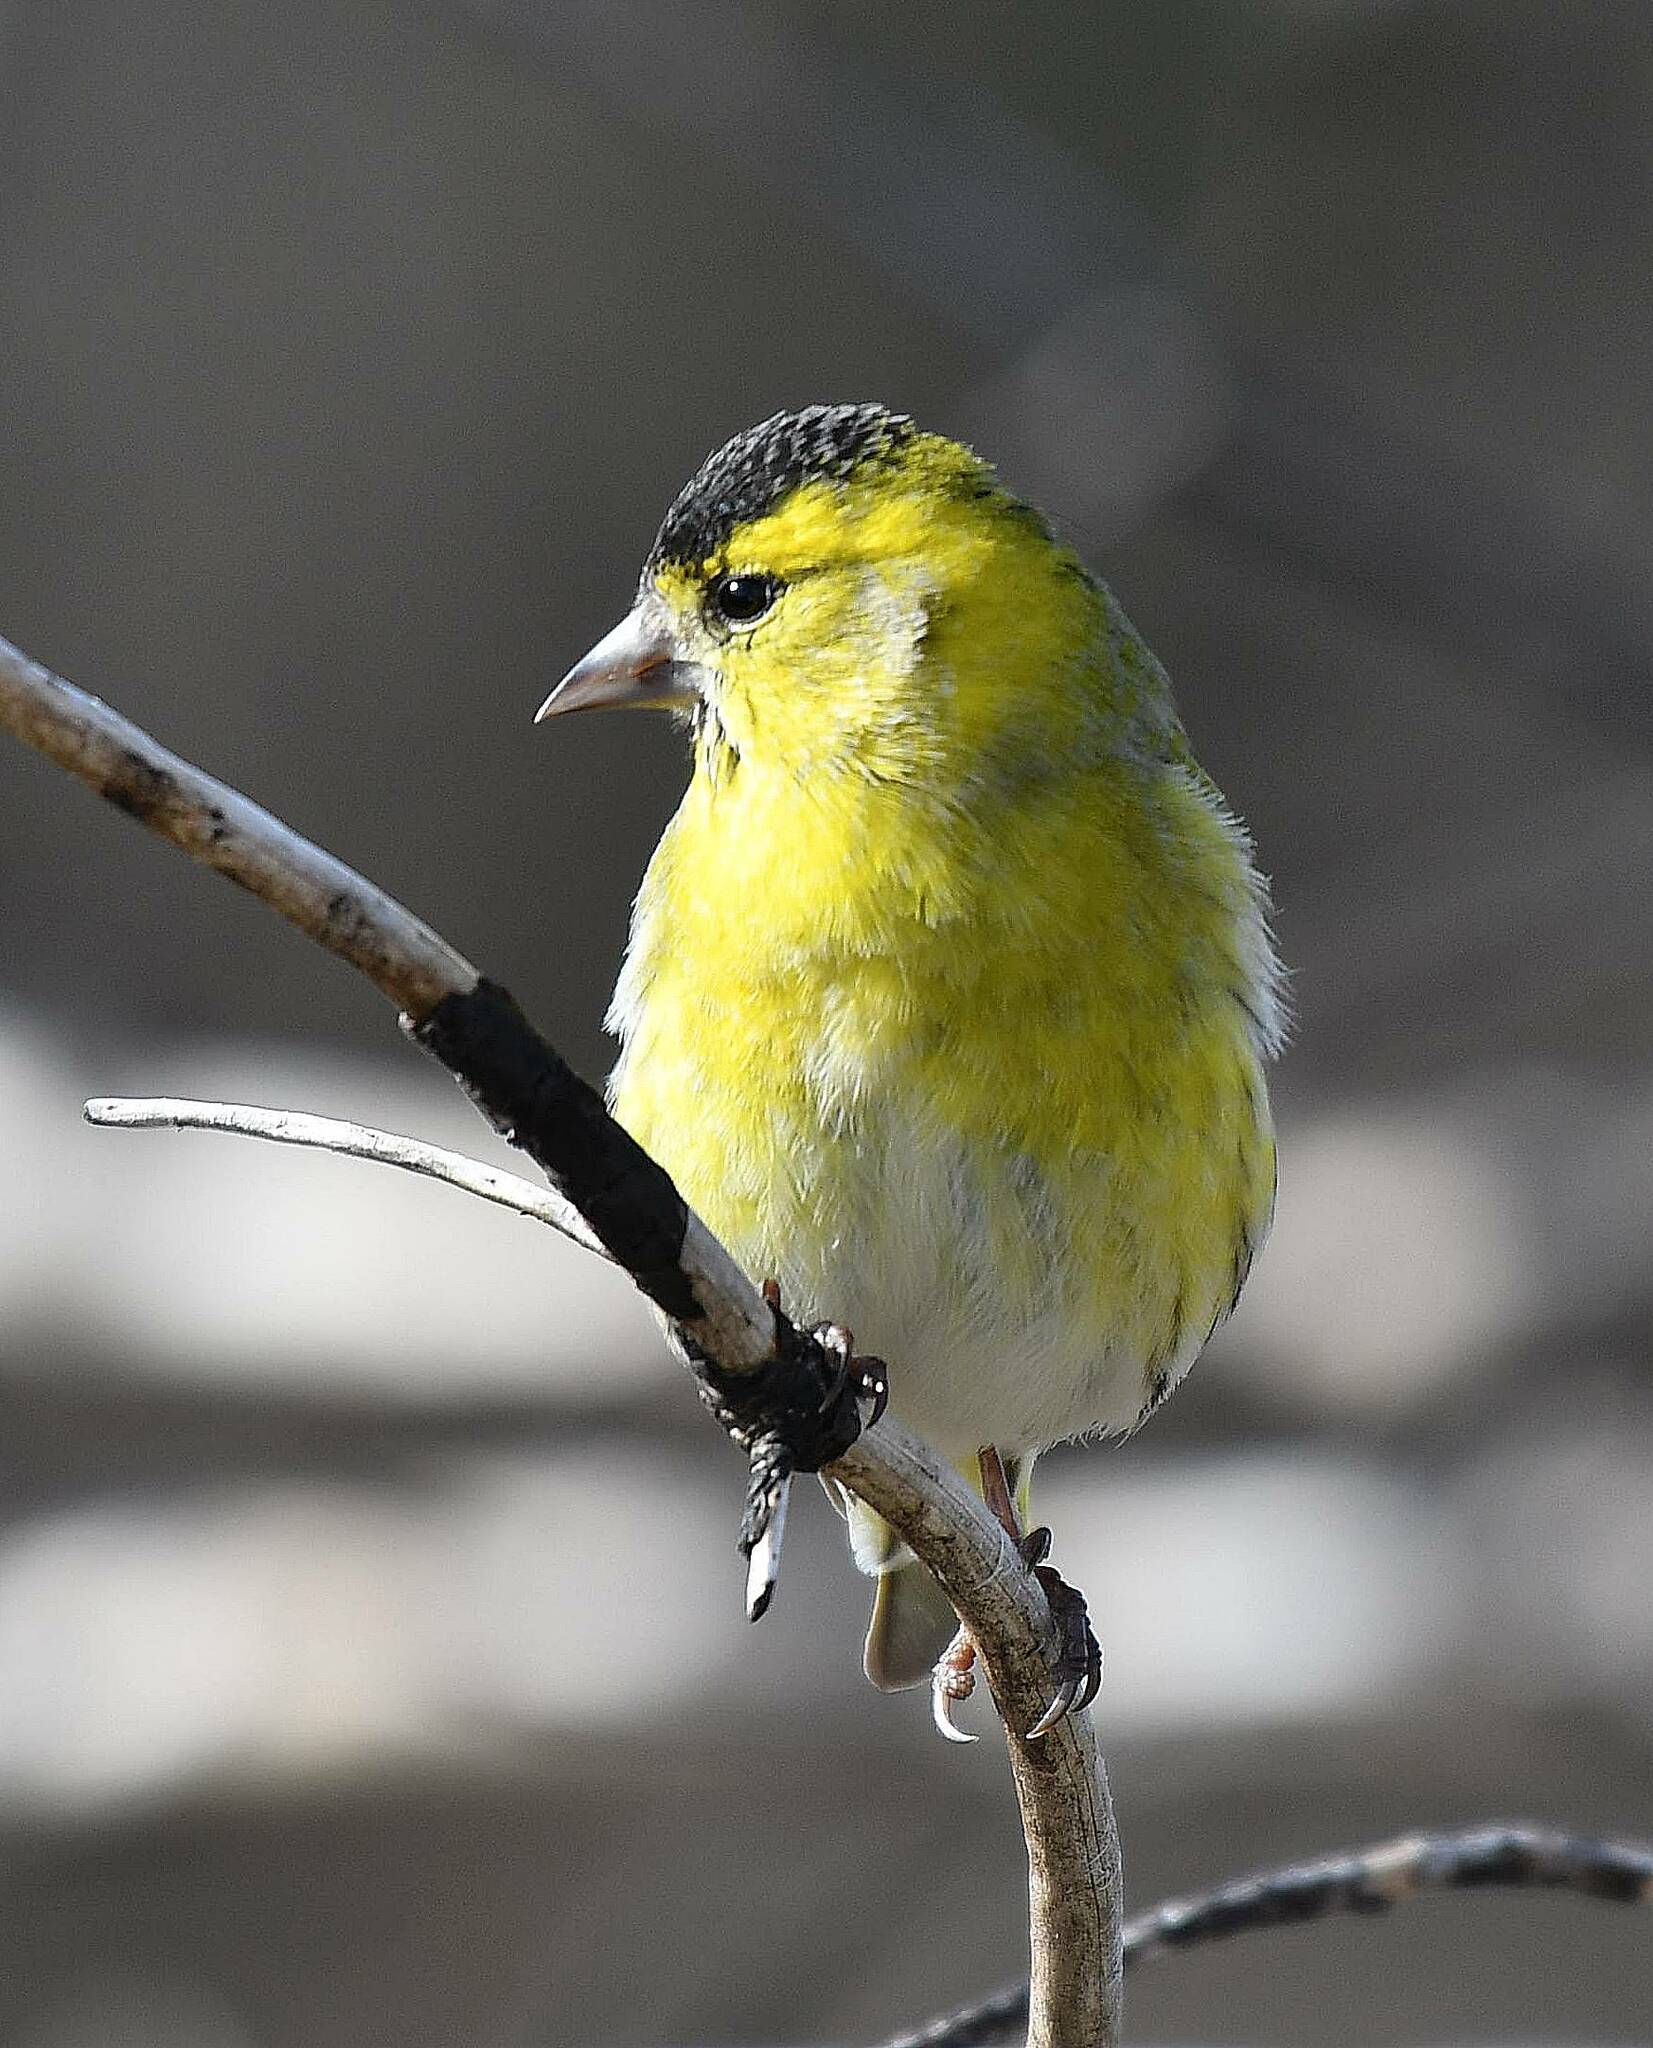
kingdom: Animalia
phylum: Chordata
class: Aves
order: Passeriformes
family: Fringillidae
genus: Spinus
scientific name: Spinus spinus
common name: Eurasian siskin
